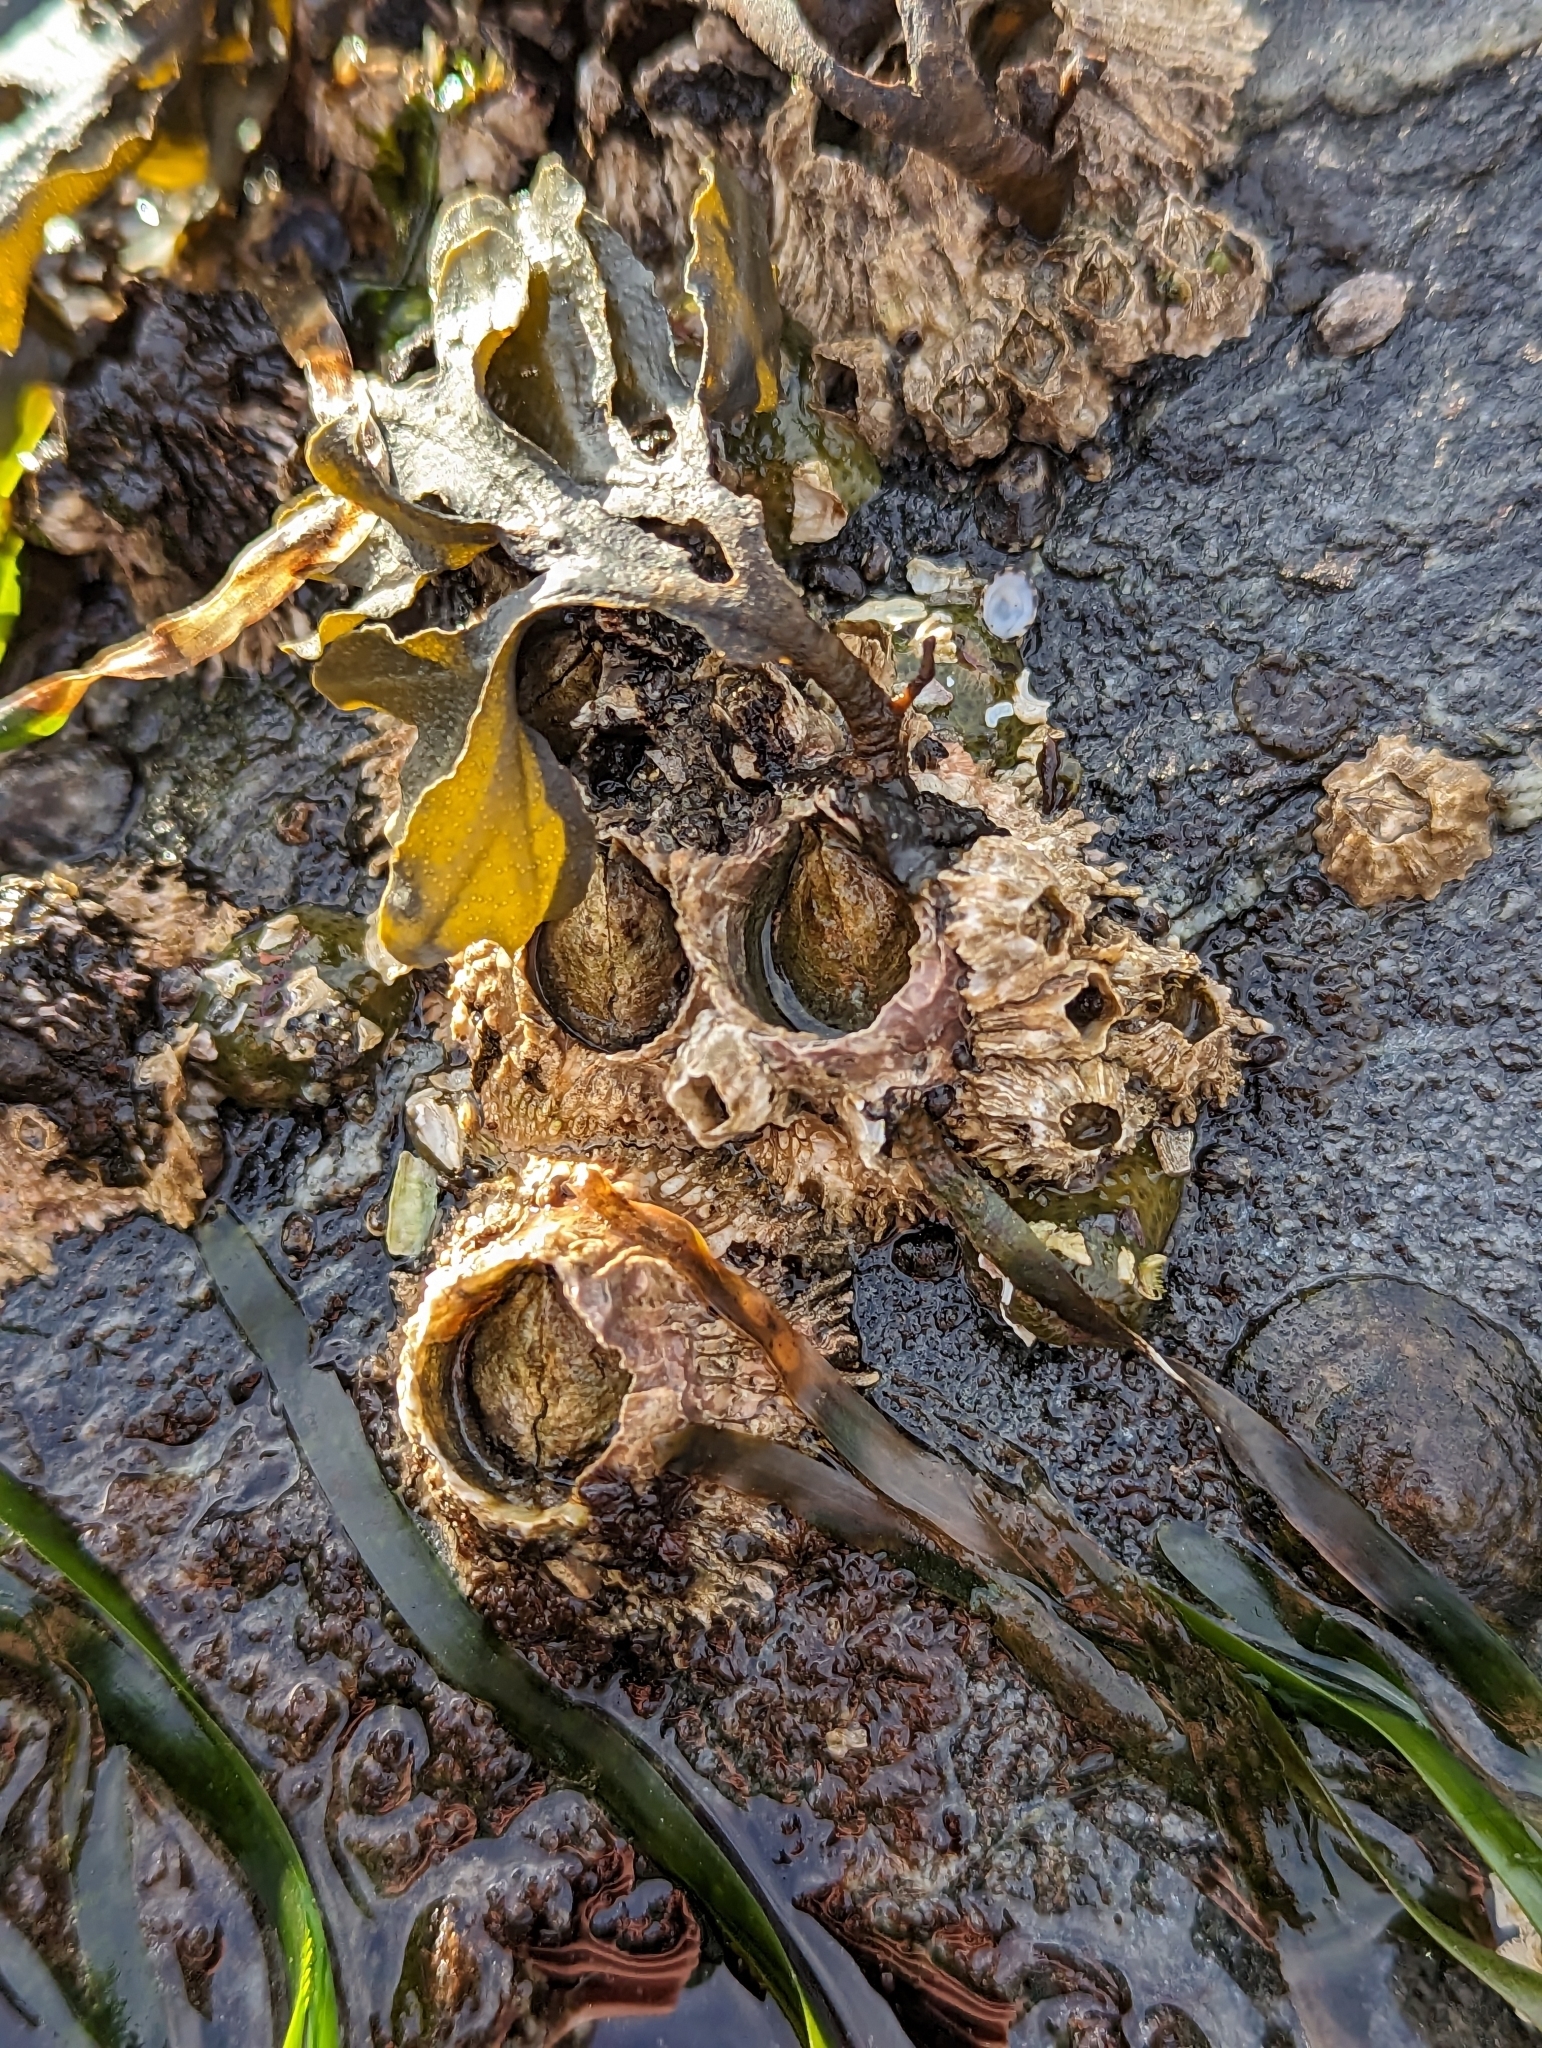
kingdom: Animalia
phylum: Arthropoda
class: Maxillopoda
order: Sessilia
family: Archaeobalanidae
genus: Semibalanus
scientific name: Semibalanus cariosus
